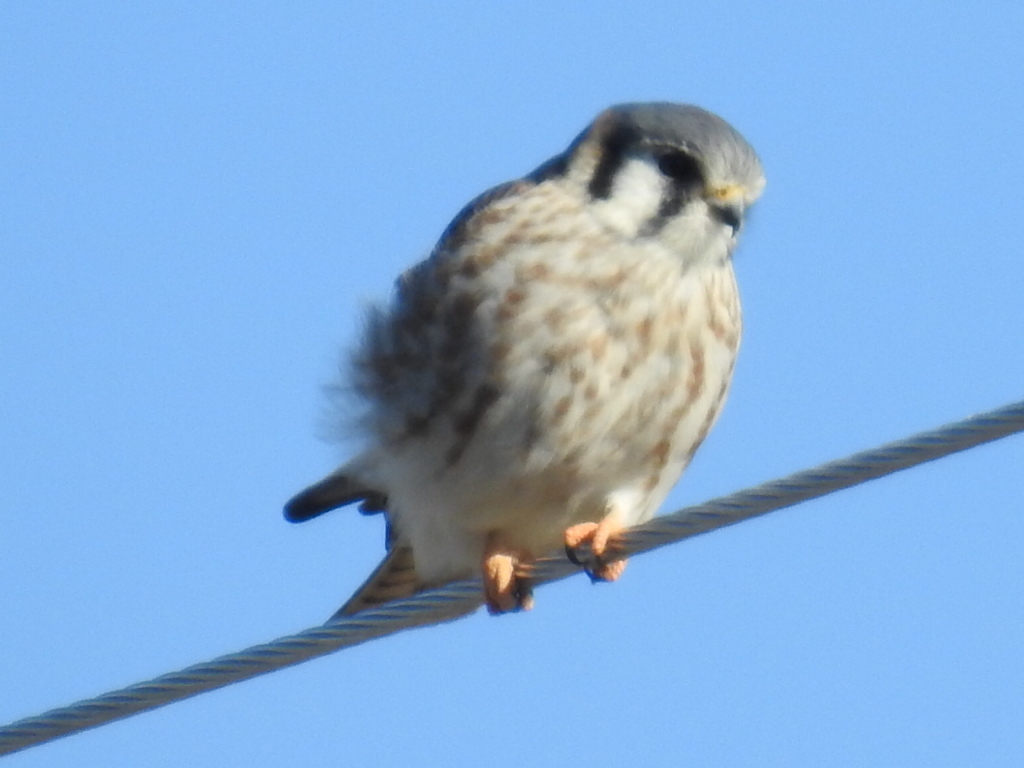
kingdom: Animalia
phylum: Chordata
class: Aves
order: Falconiformes
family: Falconidae
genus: Falco
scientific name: Falco sparverius
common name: American kestrel
